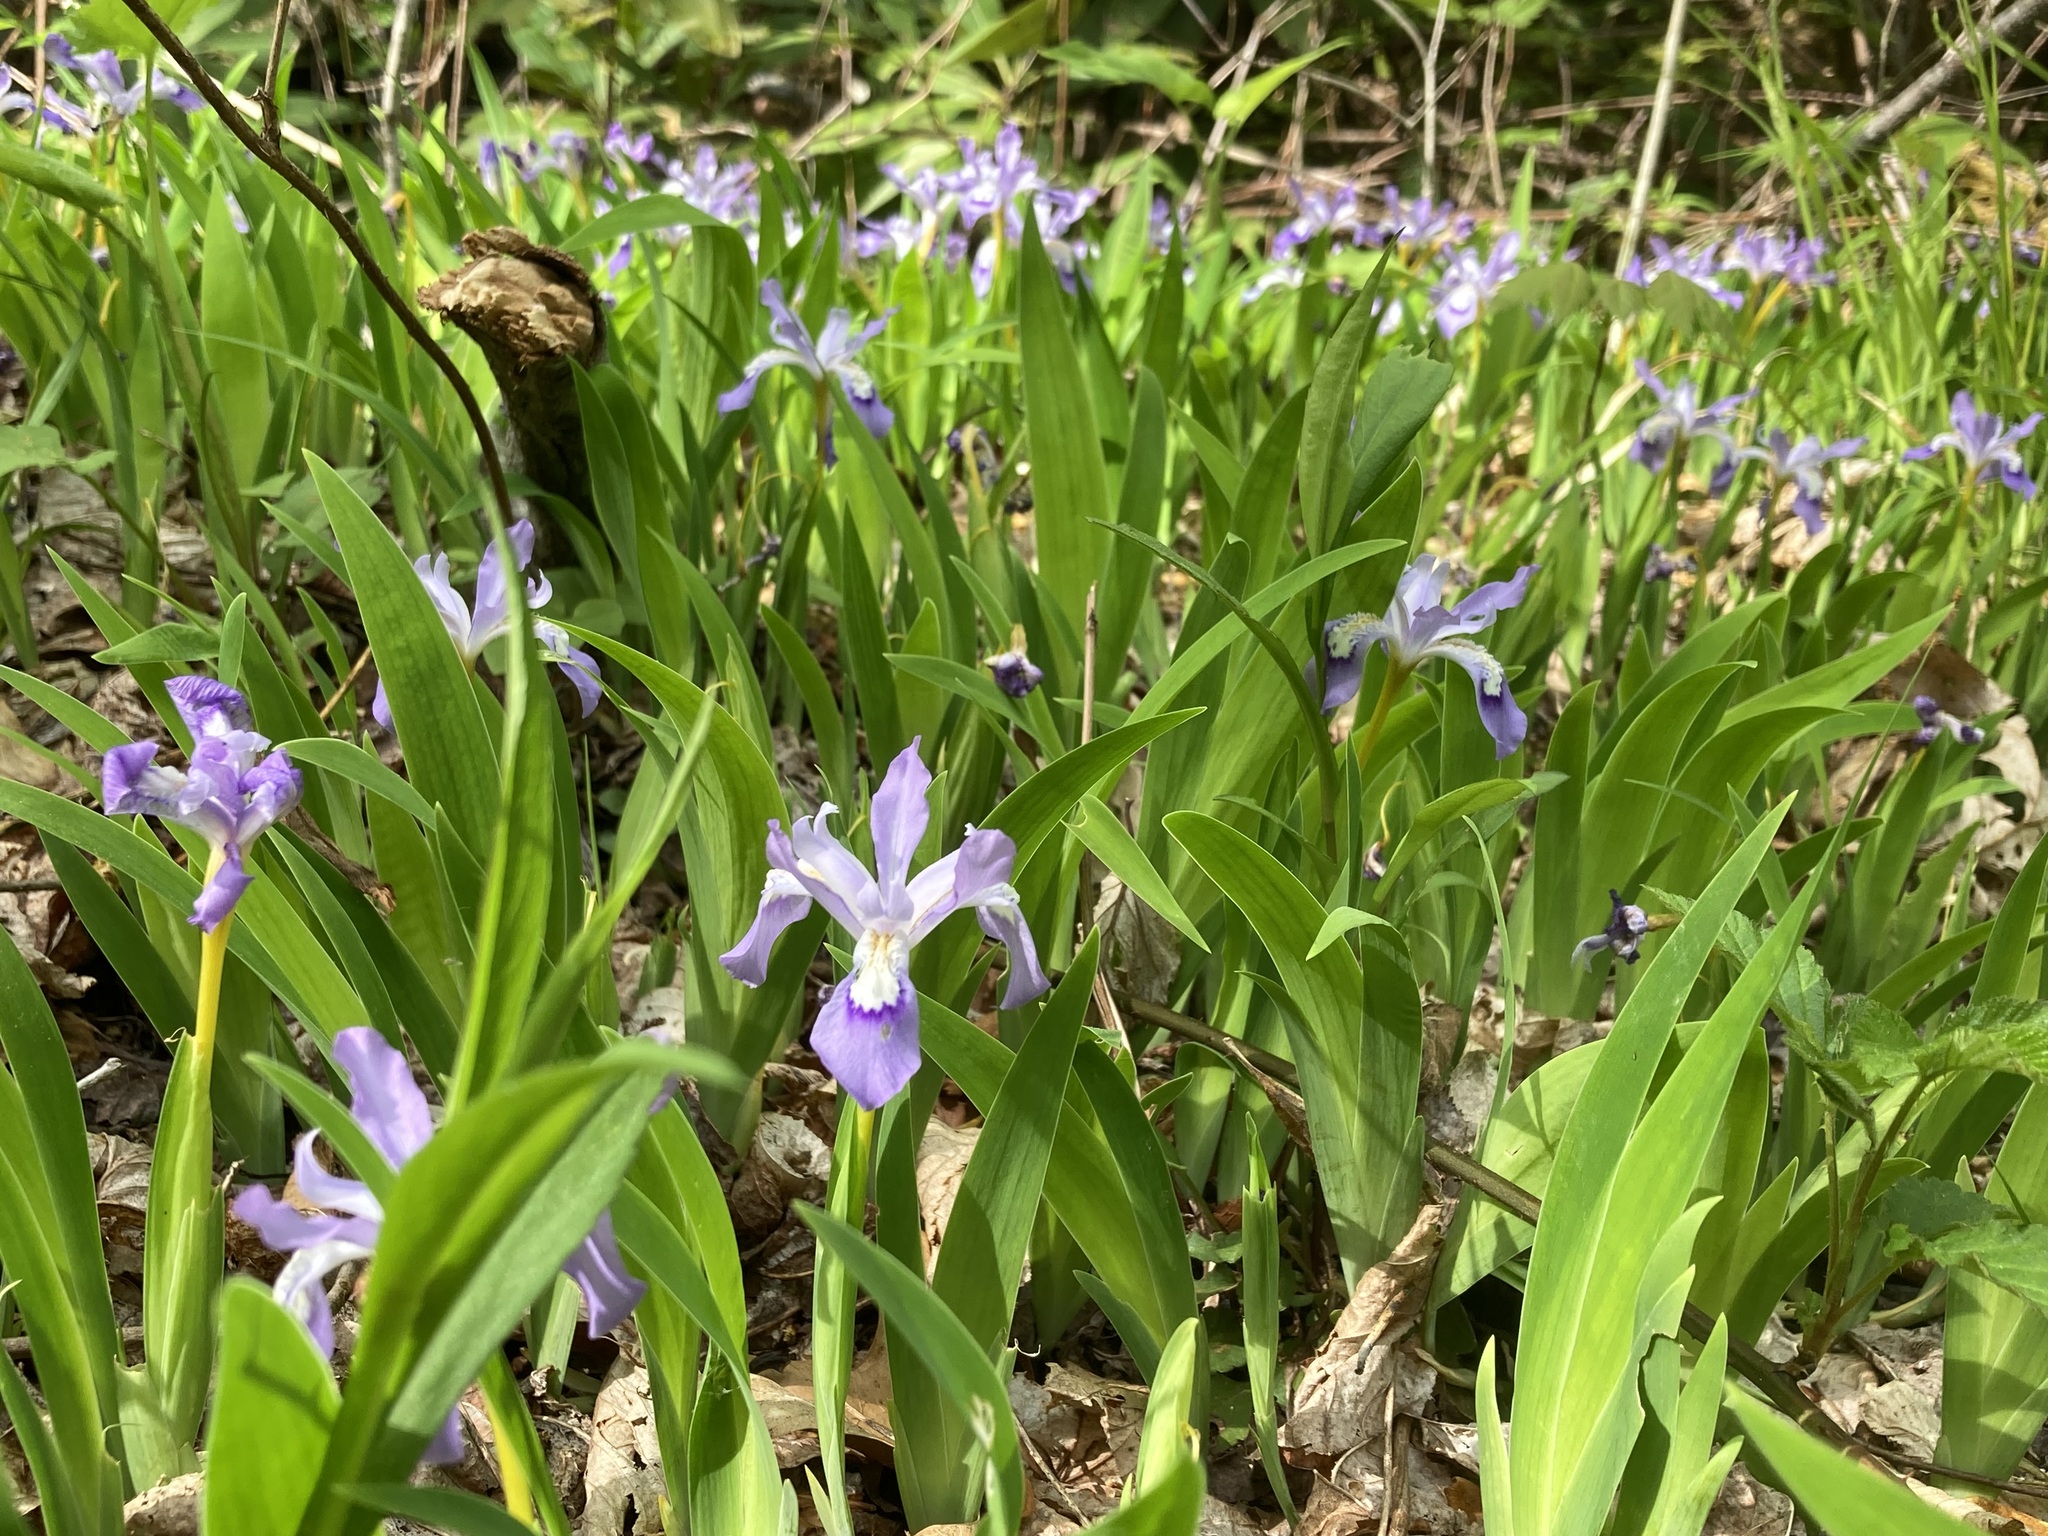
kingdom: Plantae
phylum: Tracheophyta
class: Liliopsida
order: Asparagales
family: Iridaceae
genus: Iris
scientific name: Iris cristata
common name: Crested iris
